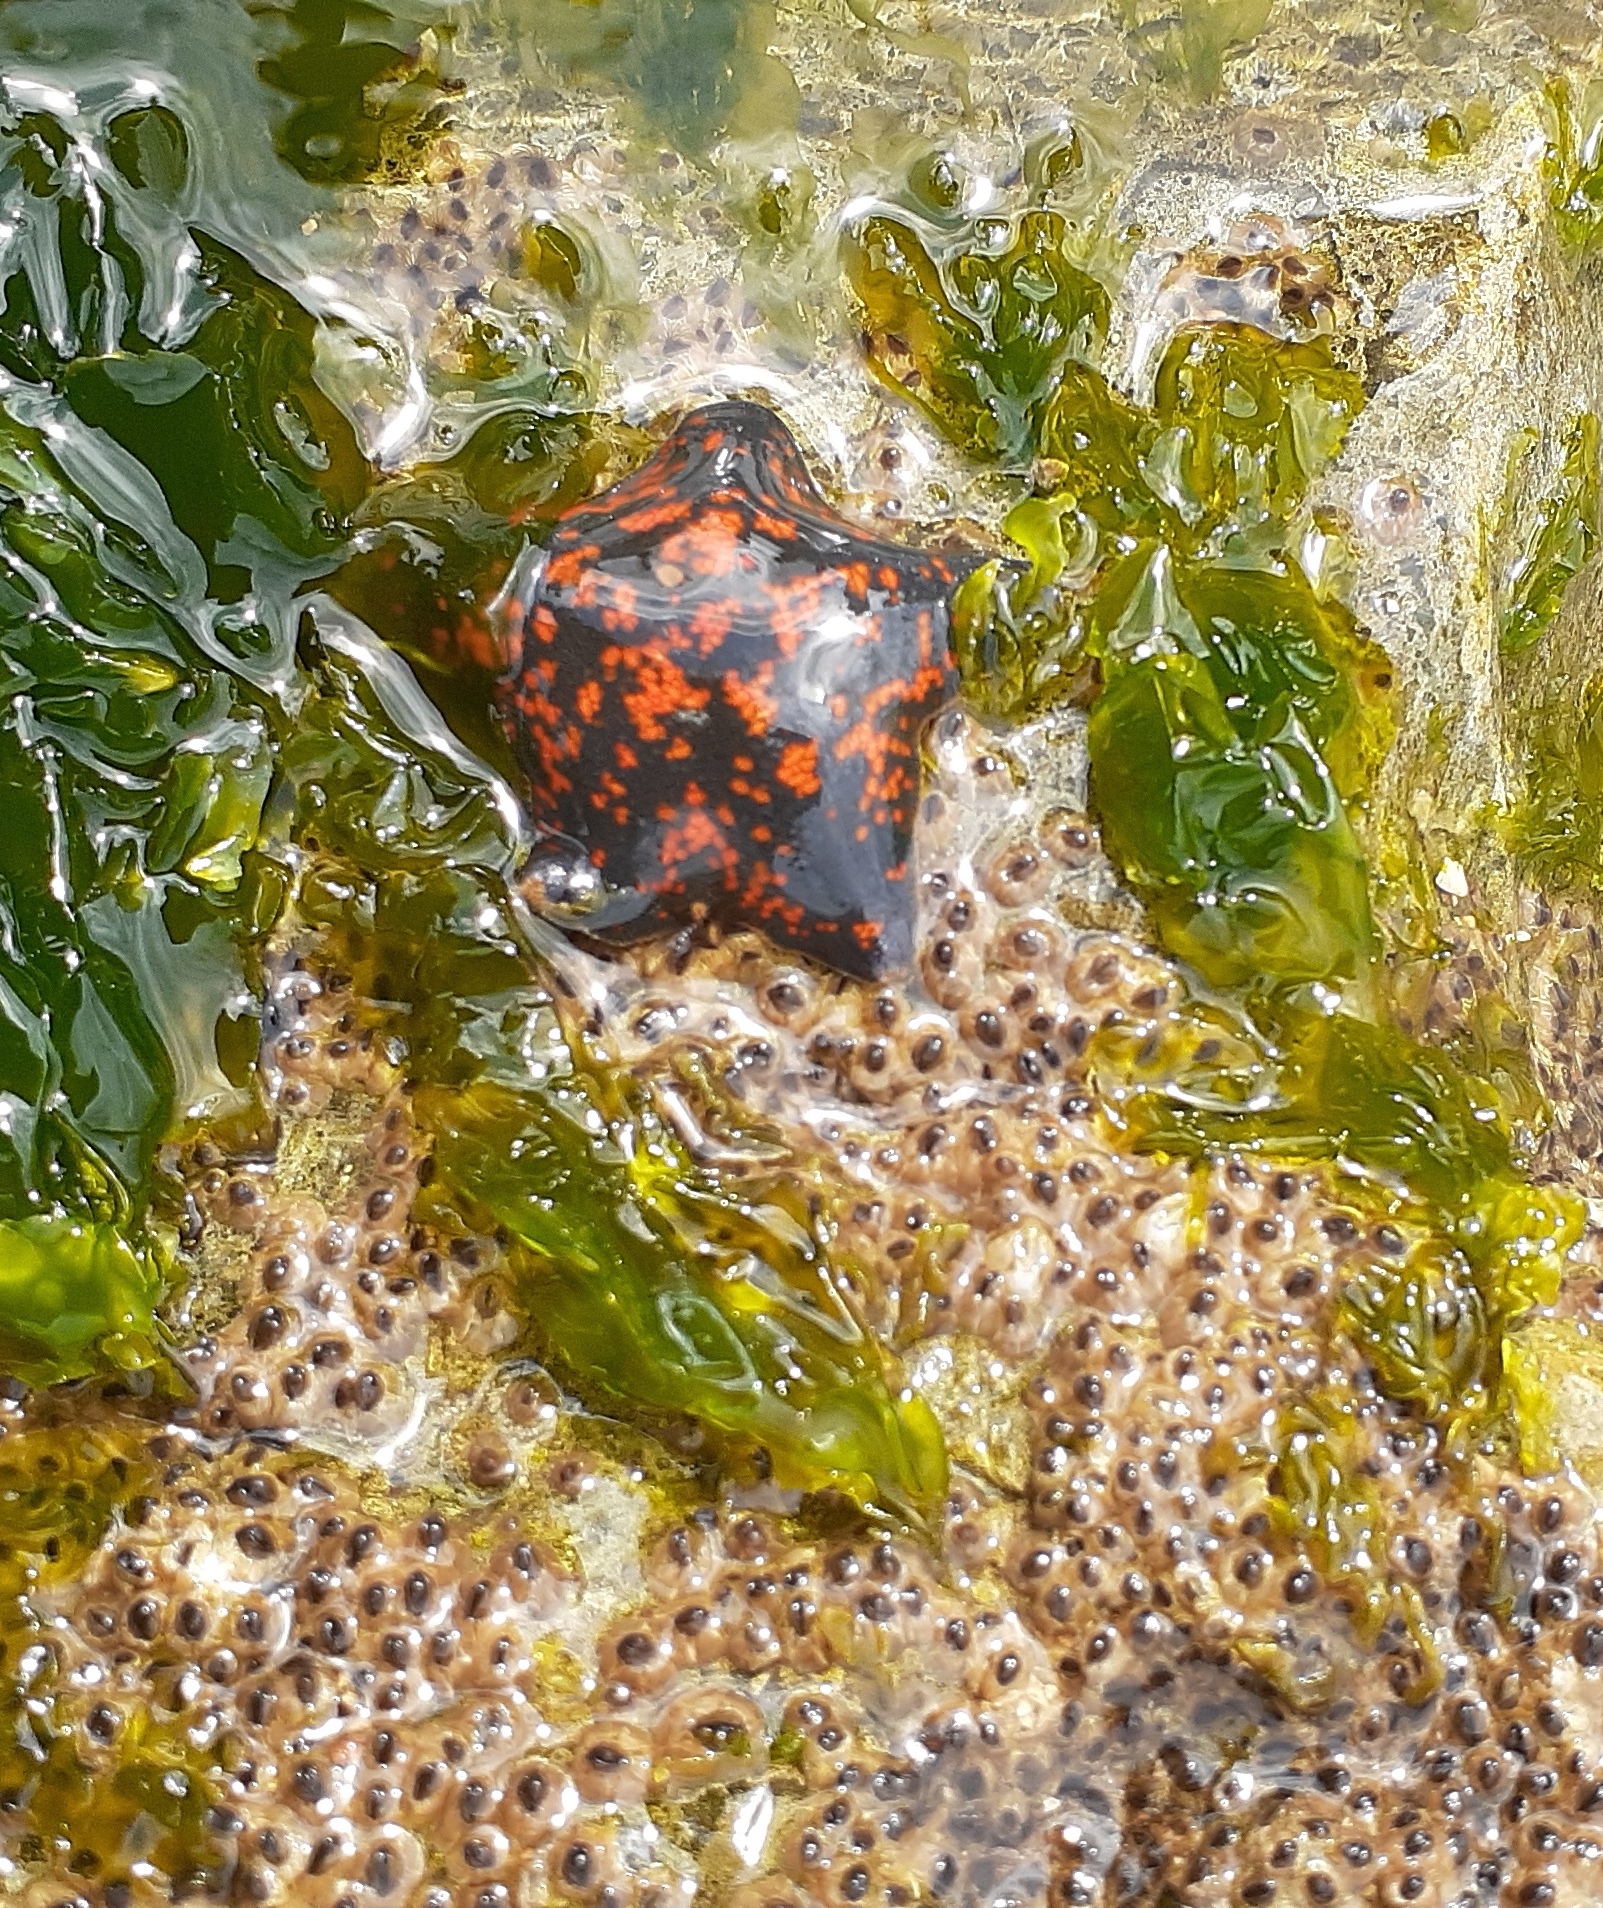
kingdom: Animalia
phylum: Echinodermata
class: Asteroidea
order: Valvatida
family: Asterinidae
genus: Patiria
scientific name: Patiria pectinifera
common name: Blue bat star
